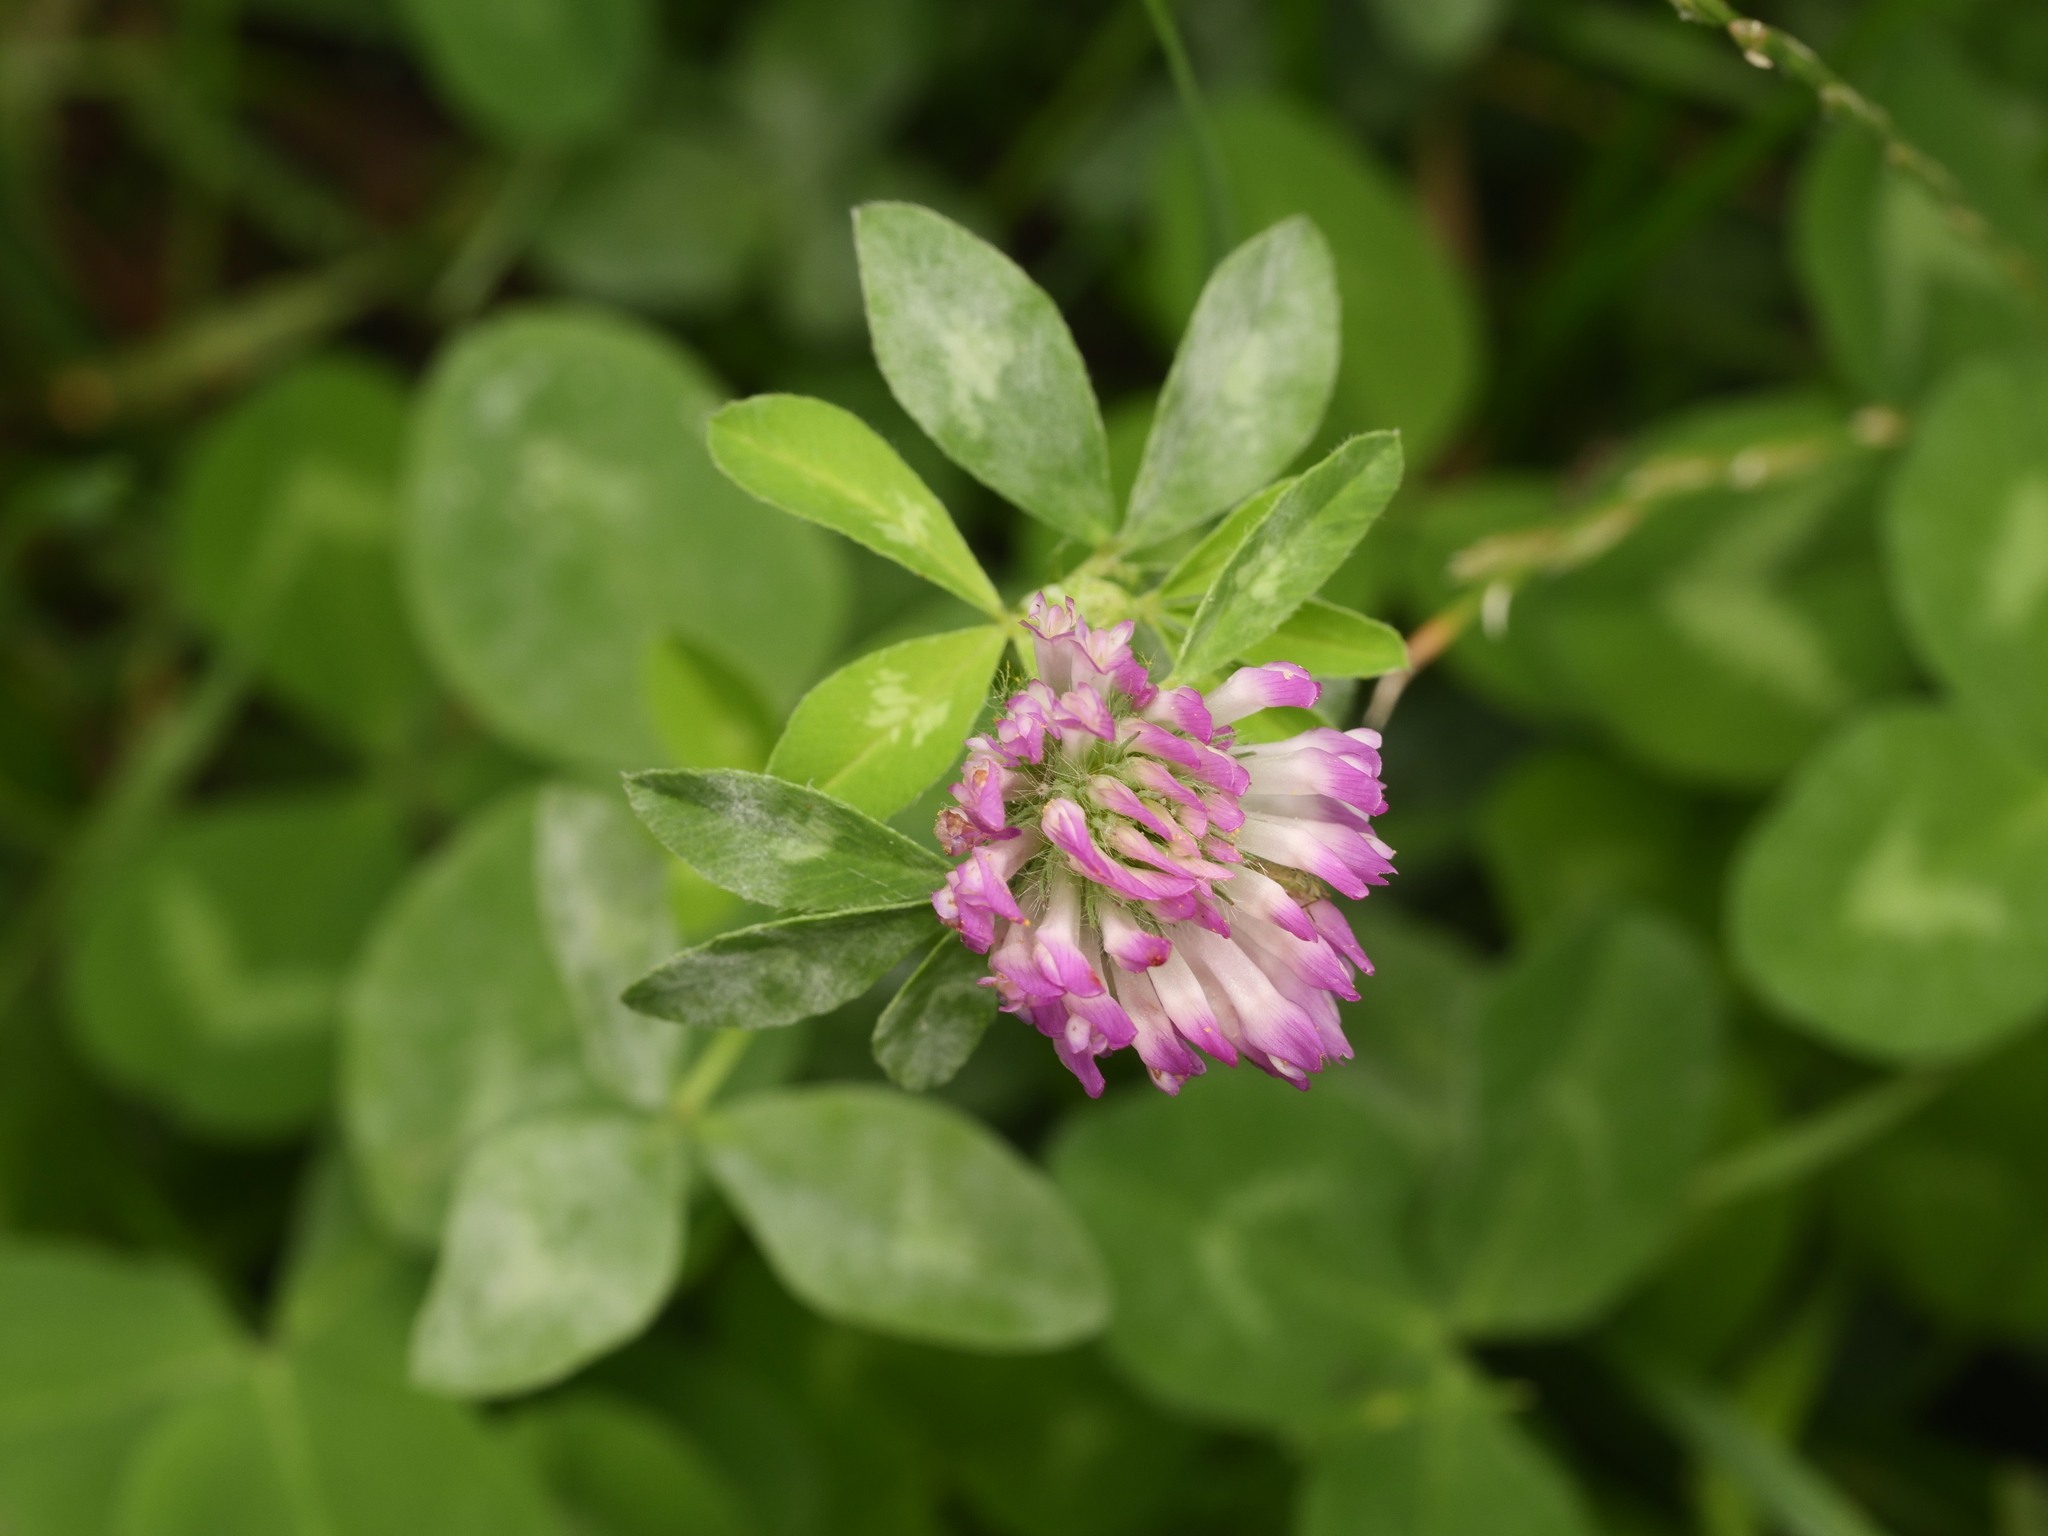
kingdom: Plantae
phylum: Tracheophyta
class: Magnoliopsida
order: Fabales
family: Fabaceae
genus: Trifolium
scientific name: Trifolium pratense
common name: Red clover
